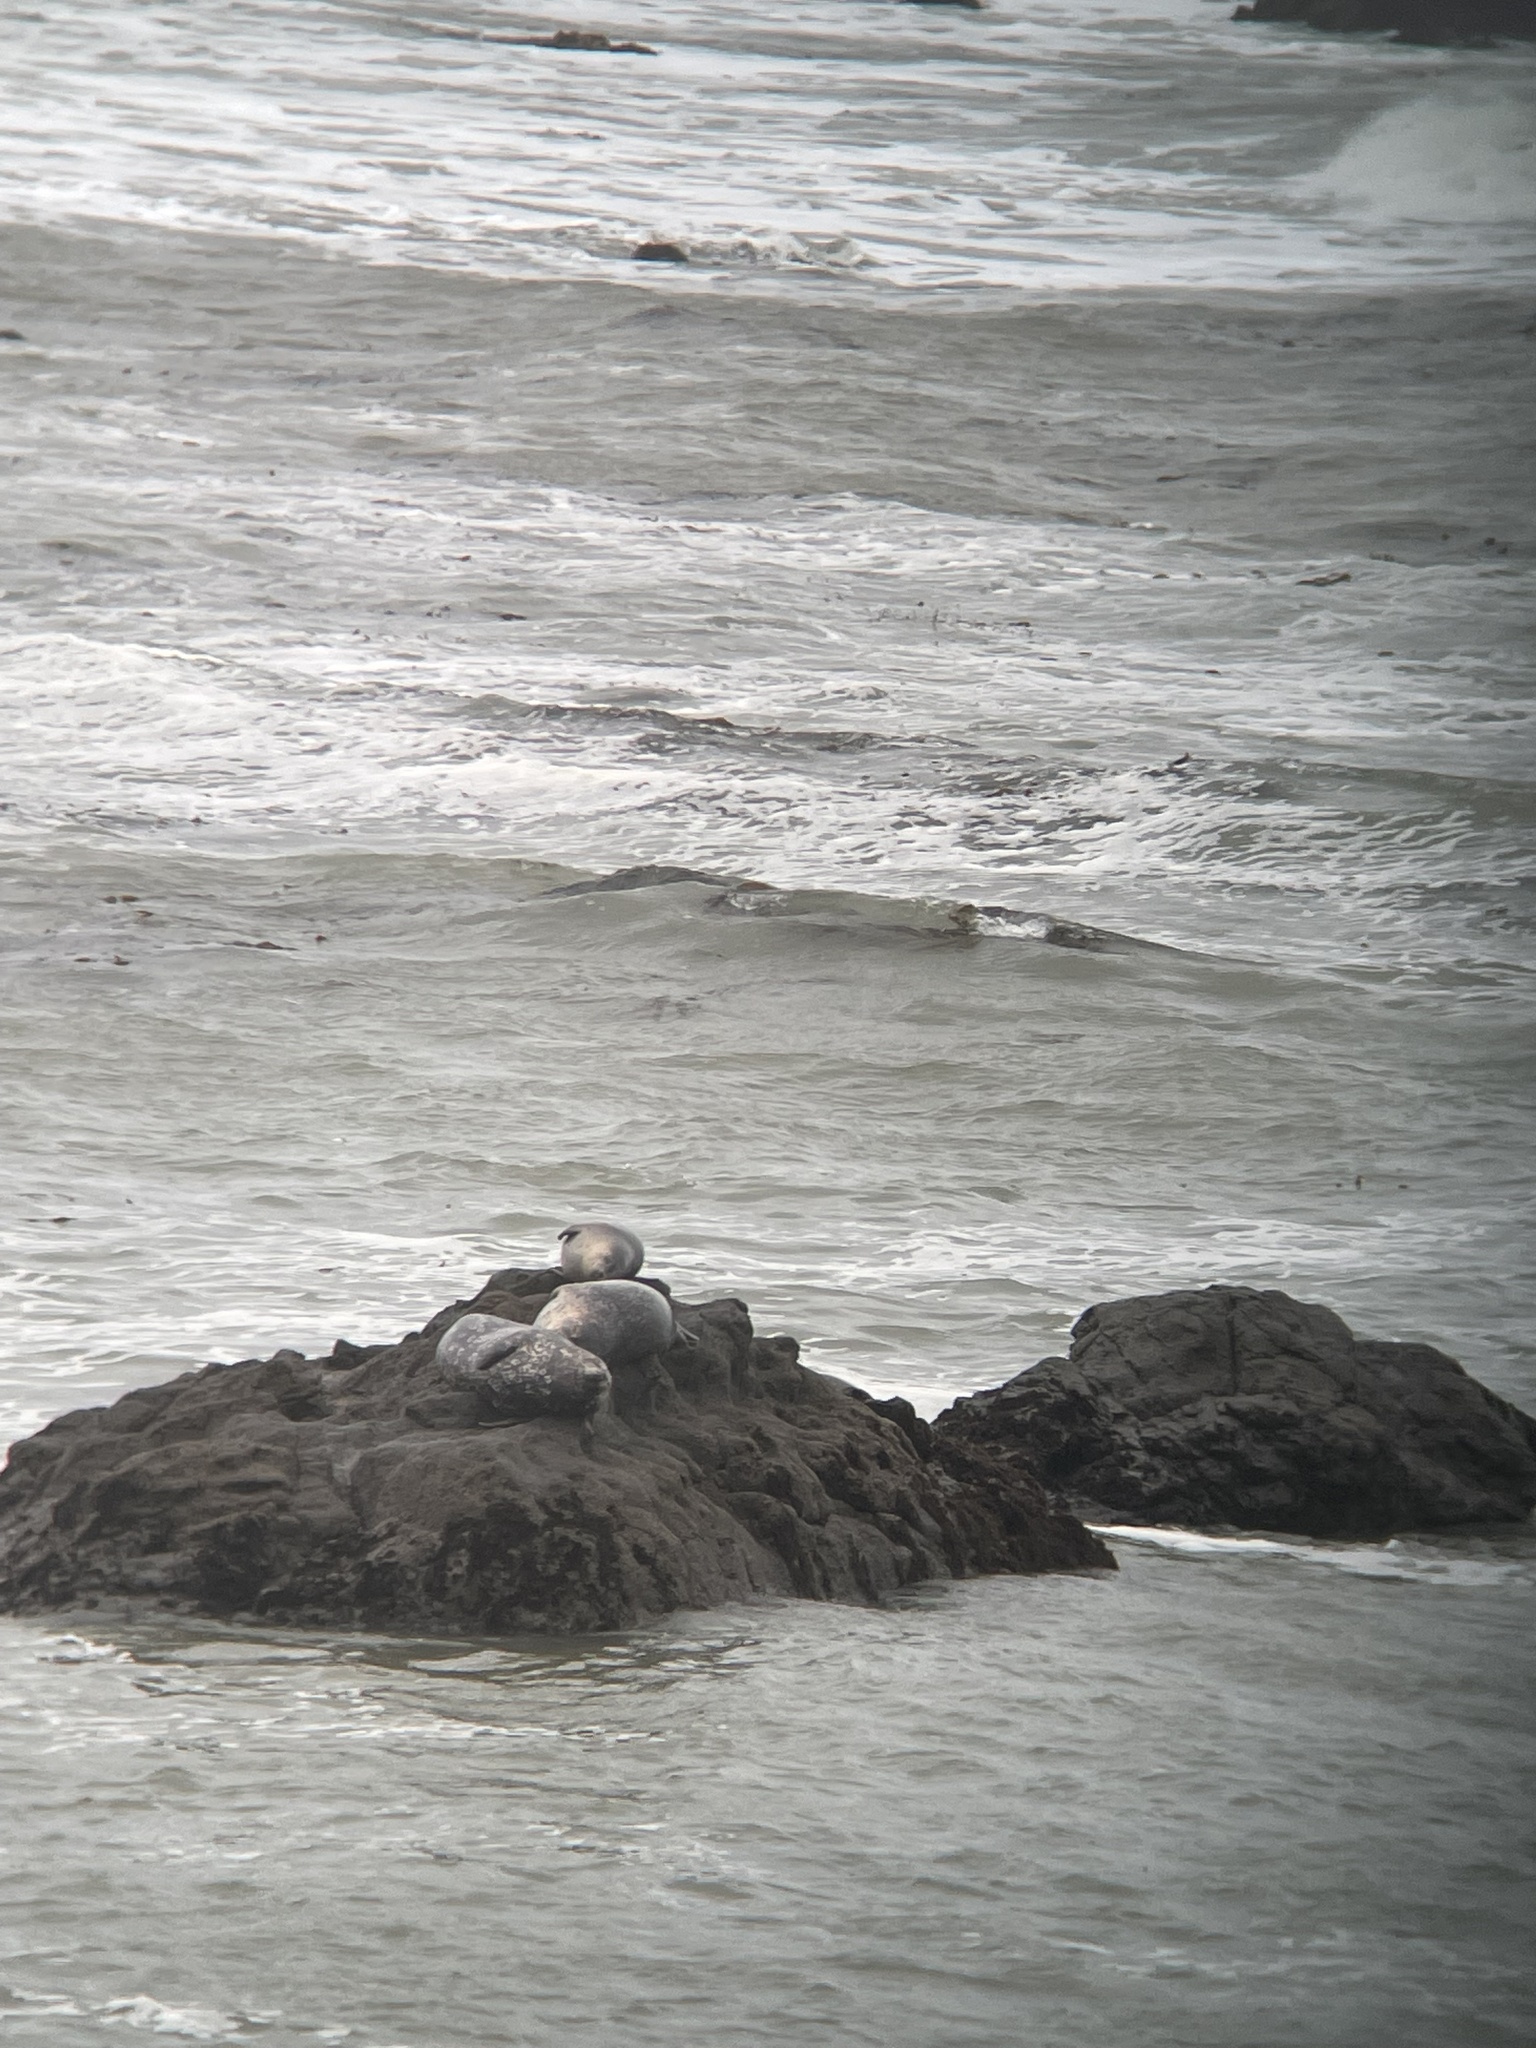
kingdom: Animalia
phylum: Chordata
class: Mammalia
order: Carnivora
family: Phocidae
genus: Phoca
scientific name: Phoca vitulina
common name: Harbor seal
